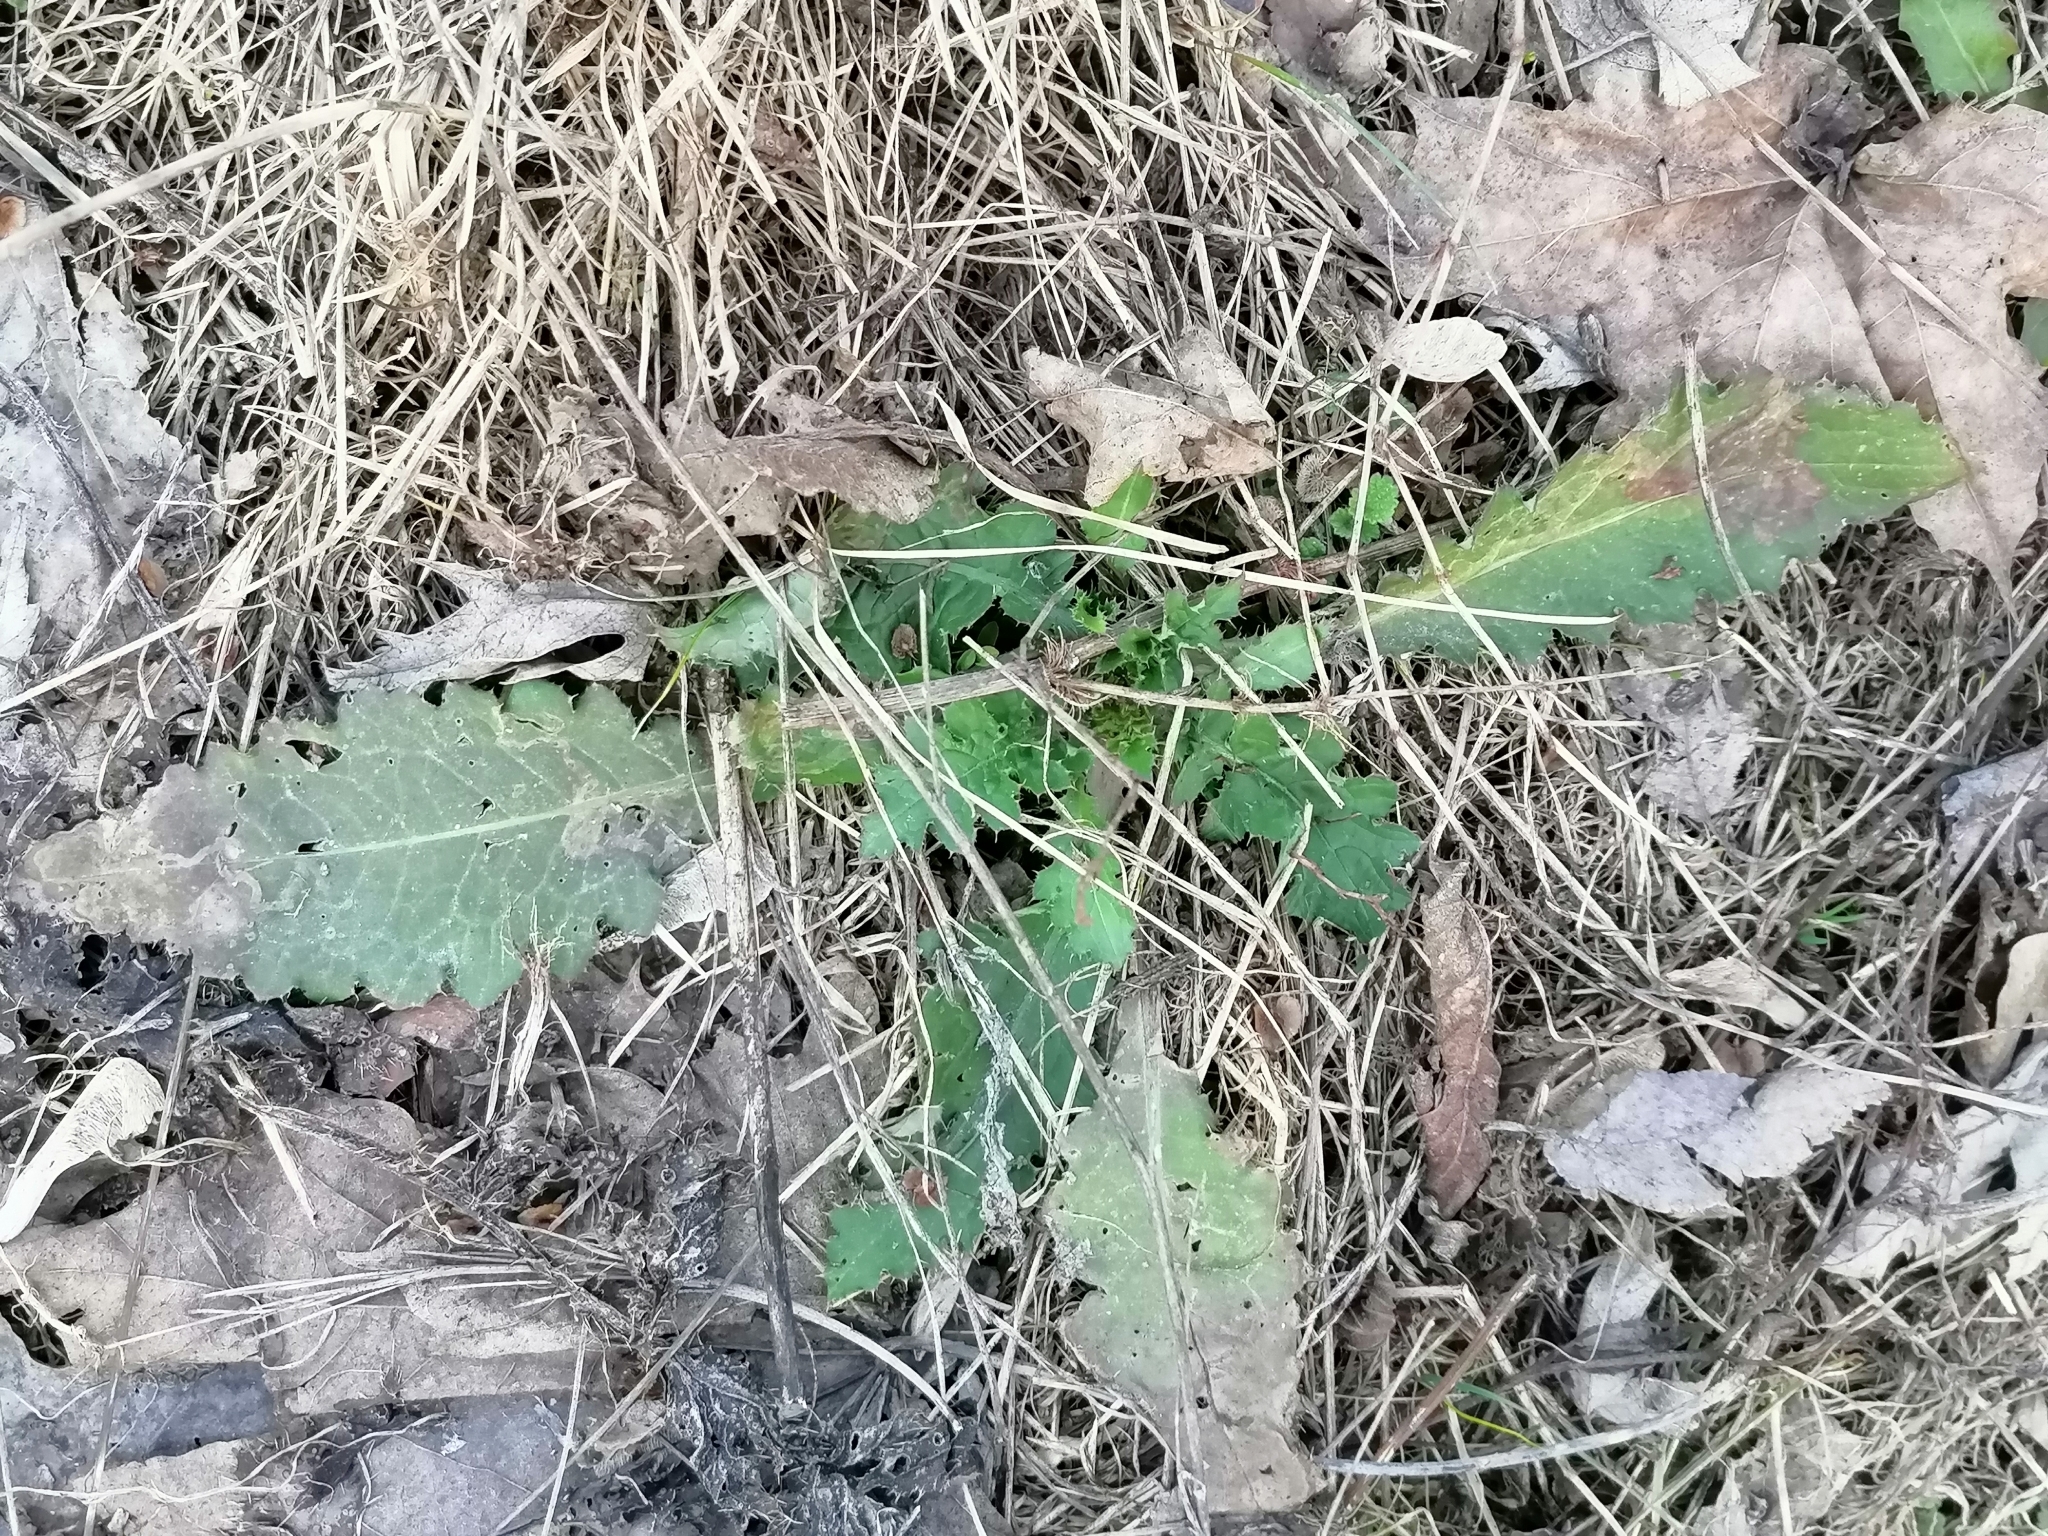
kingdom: Plantae
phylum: Tracheophyta
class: Magnoliopsida
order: Asterales
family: Asteraceae
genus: Carduus
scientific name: Carduus crispus
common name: Welted thistle
